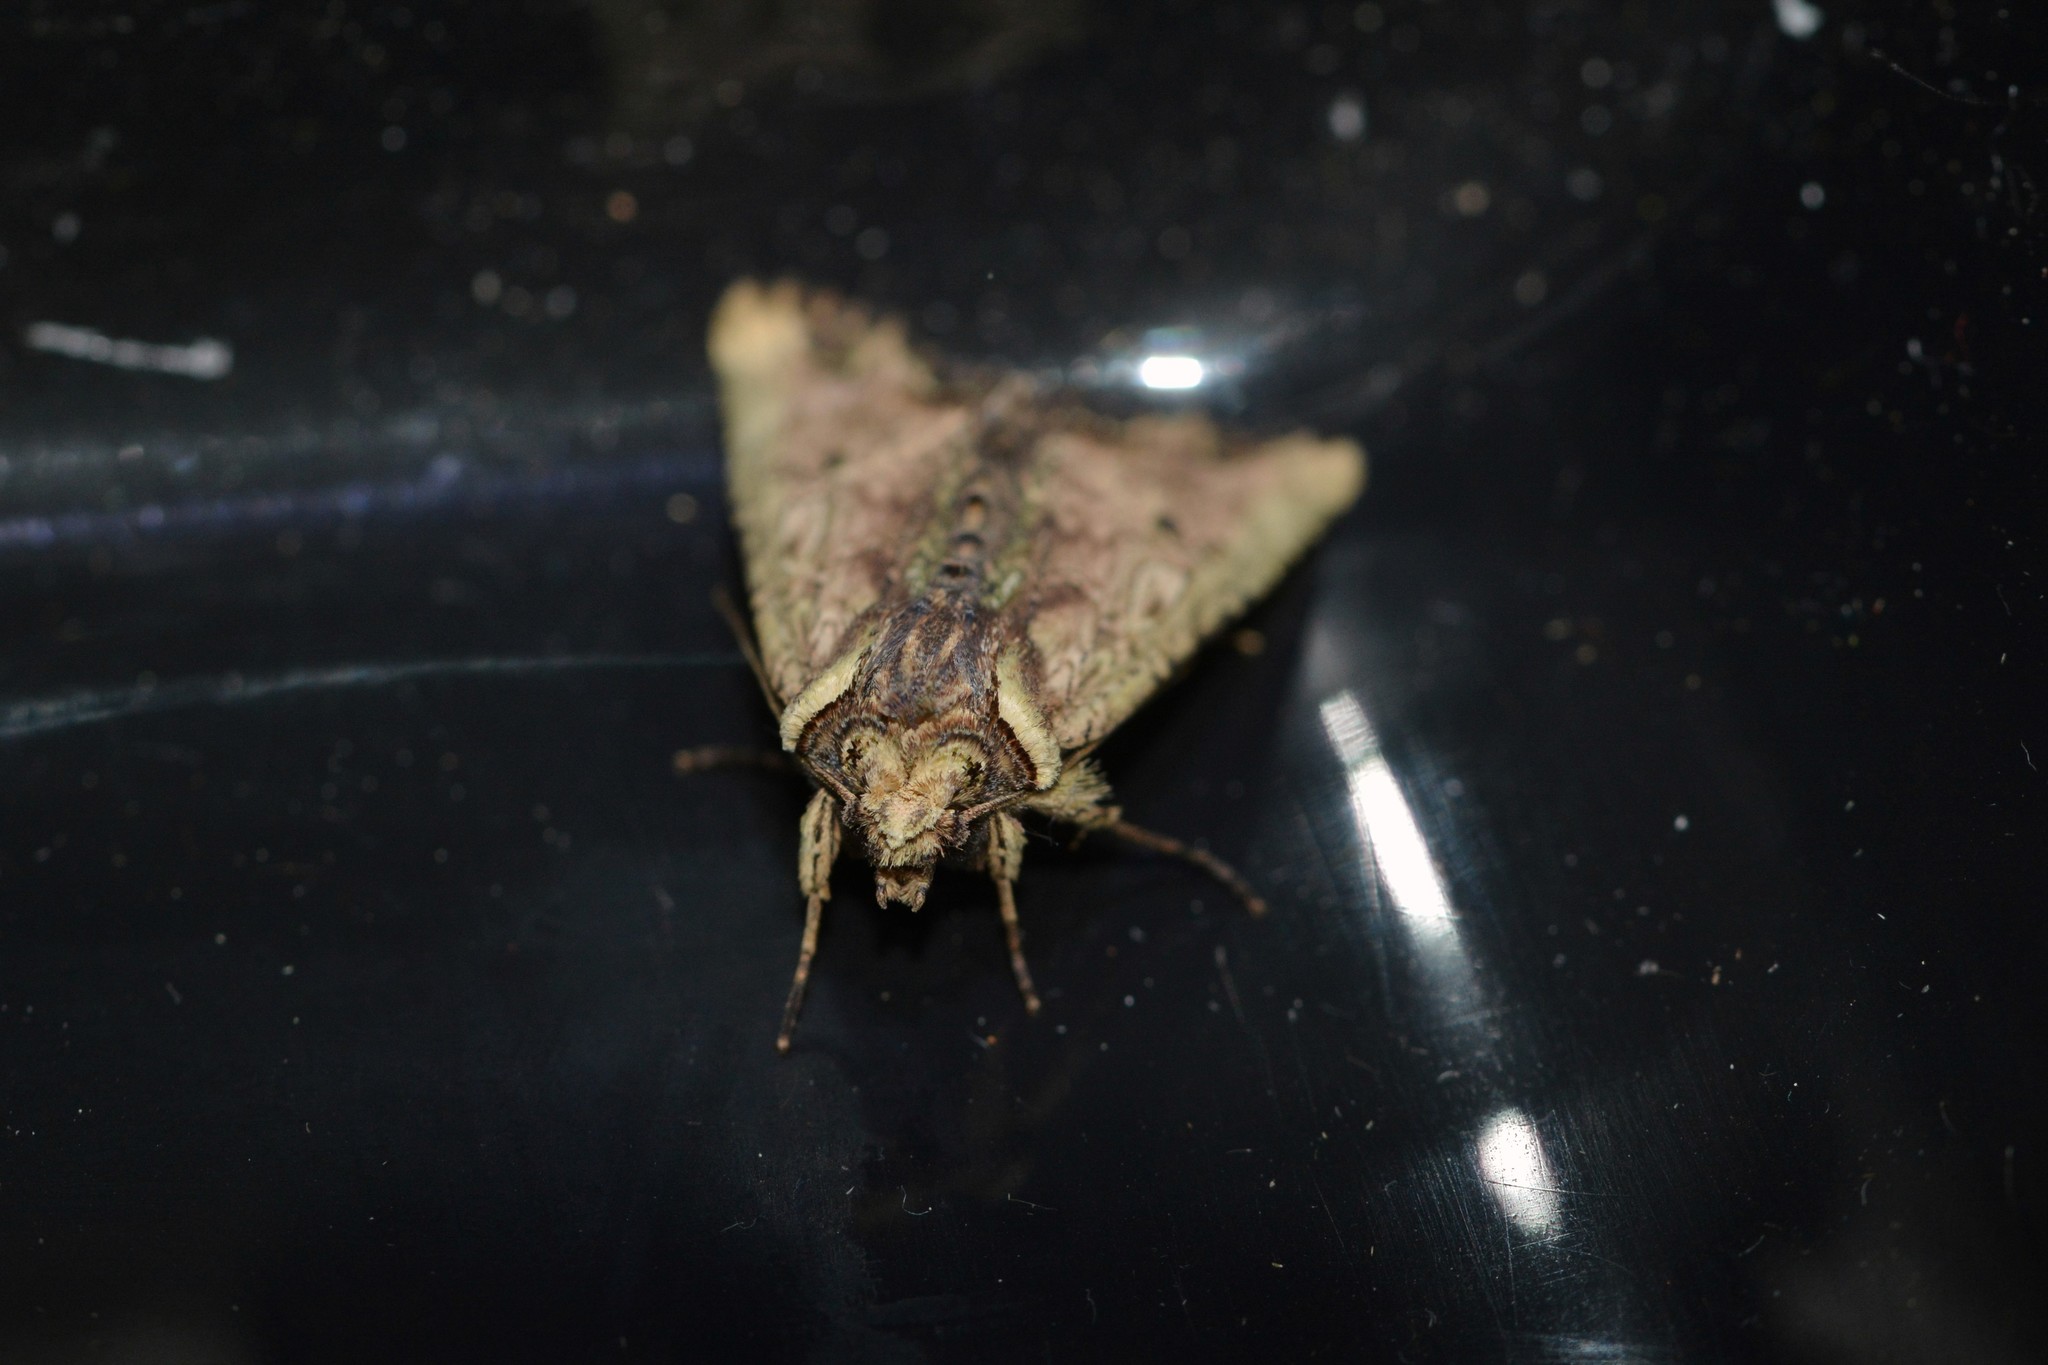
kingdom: Animalia
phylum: Arthropoda
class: Insecta
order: Lepidoptera
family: Noctuidae
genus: Meterana
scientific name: Meterana coeleno
